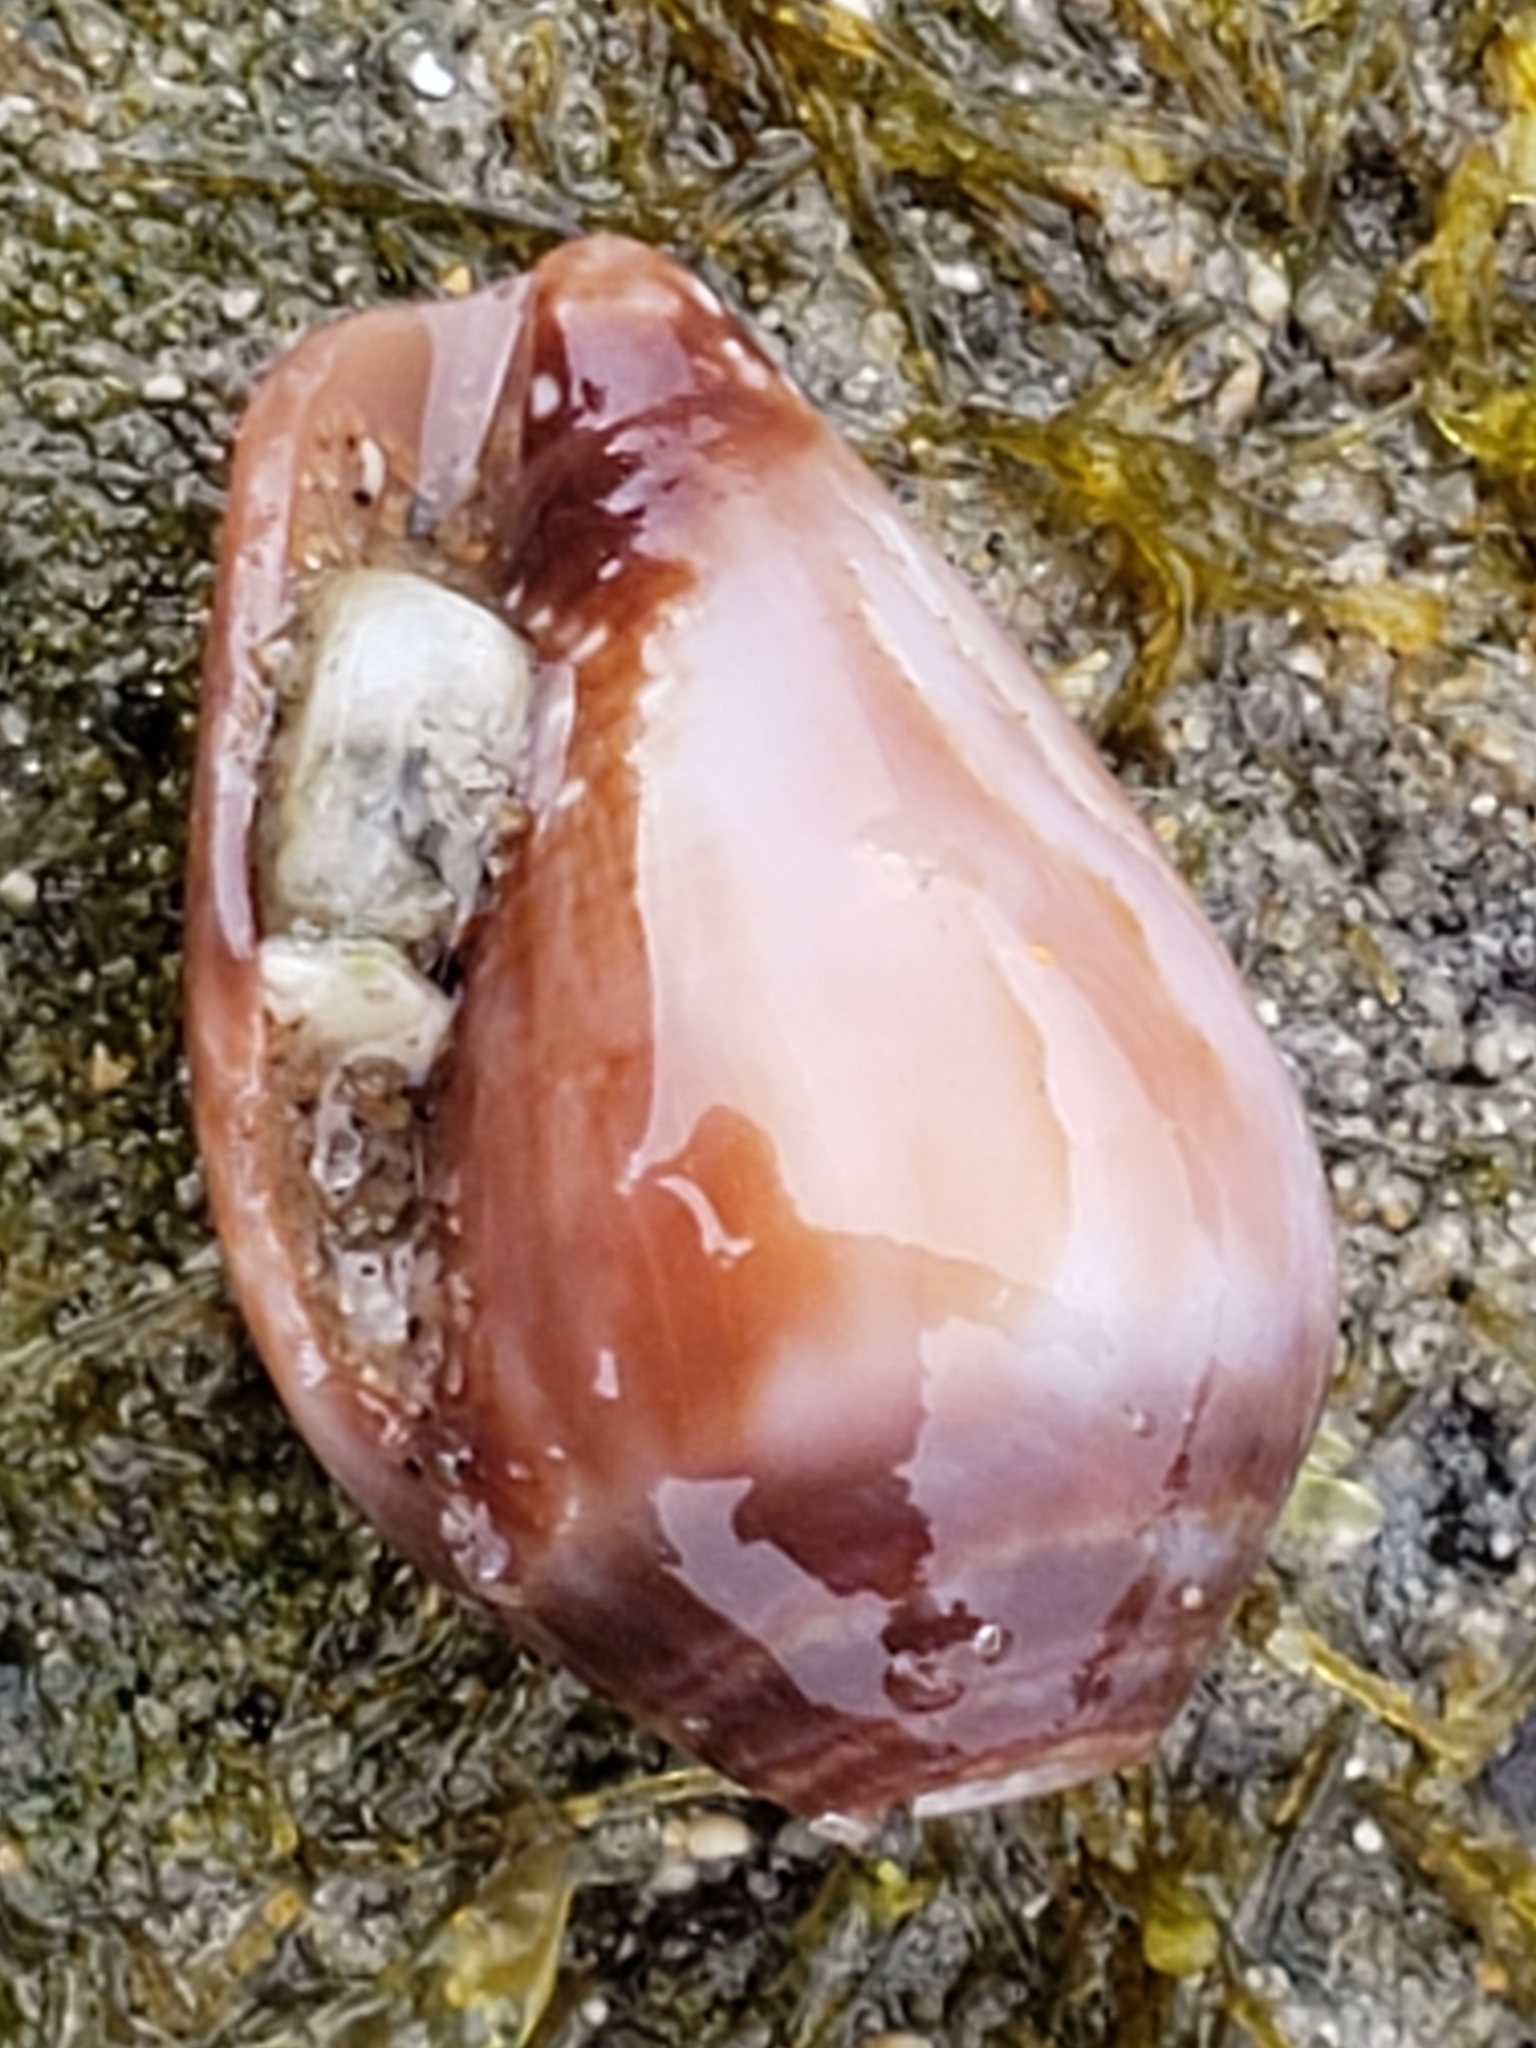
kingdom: Animalia
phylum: Mollusca
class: Gastropoda
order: Neogastropoda
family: Conidae
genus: Californiconus
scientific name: Californiconus californicus
